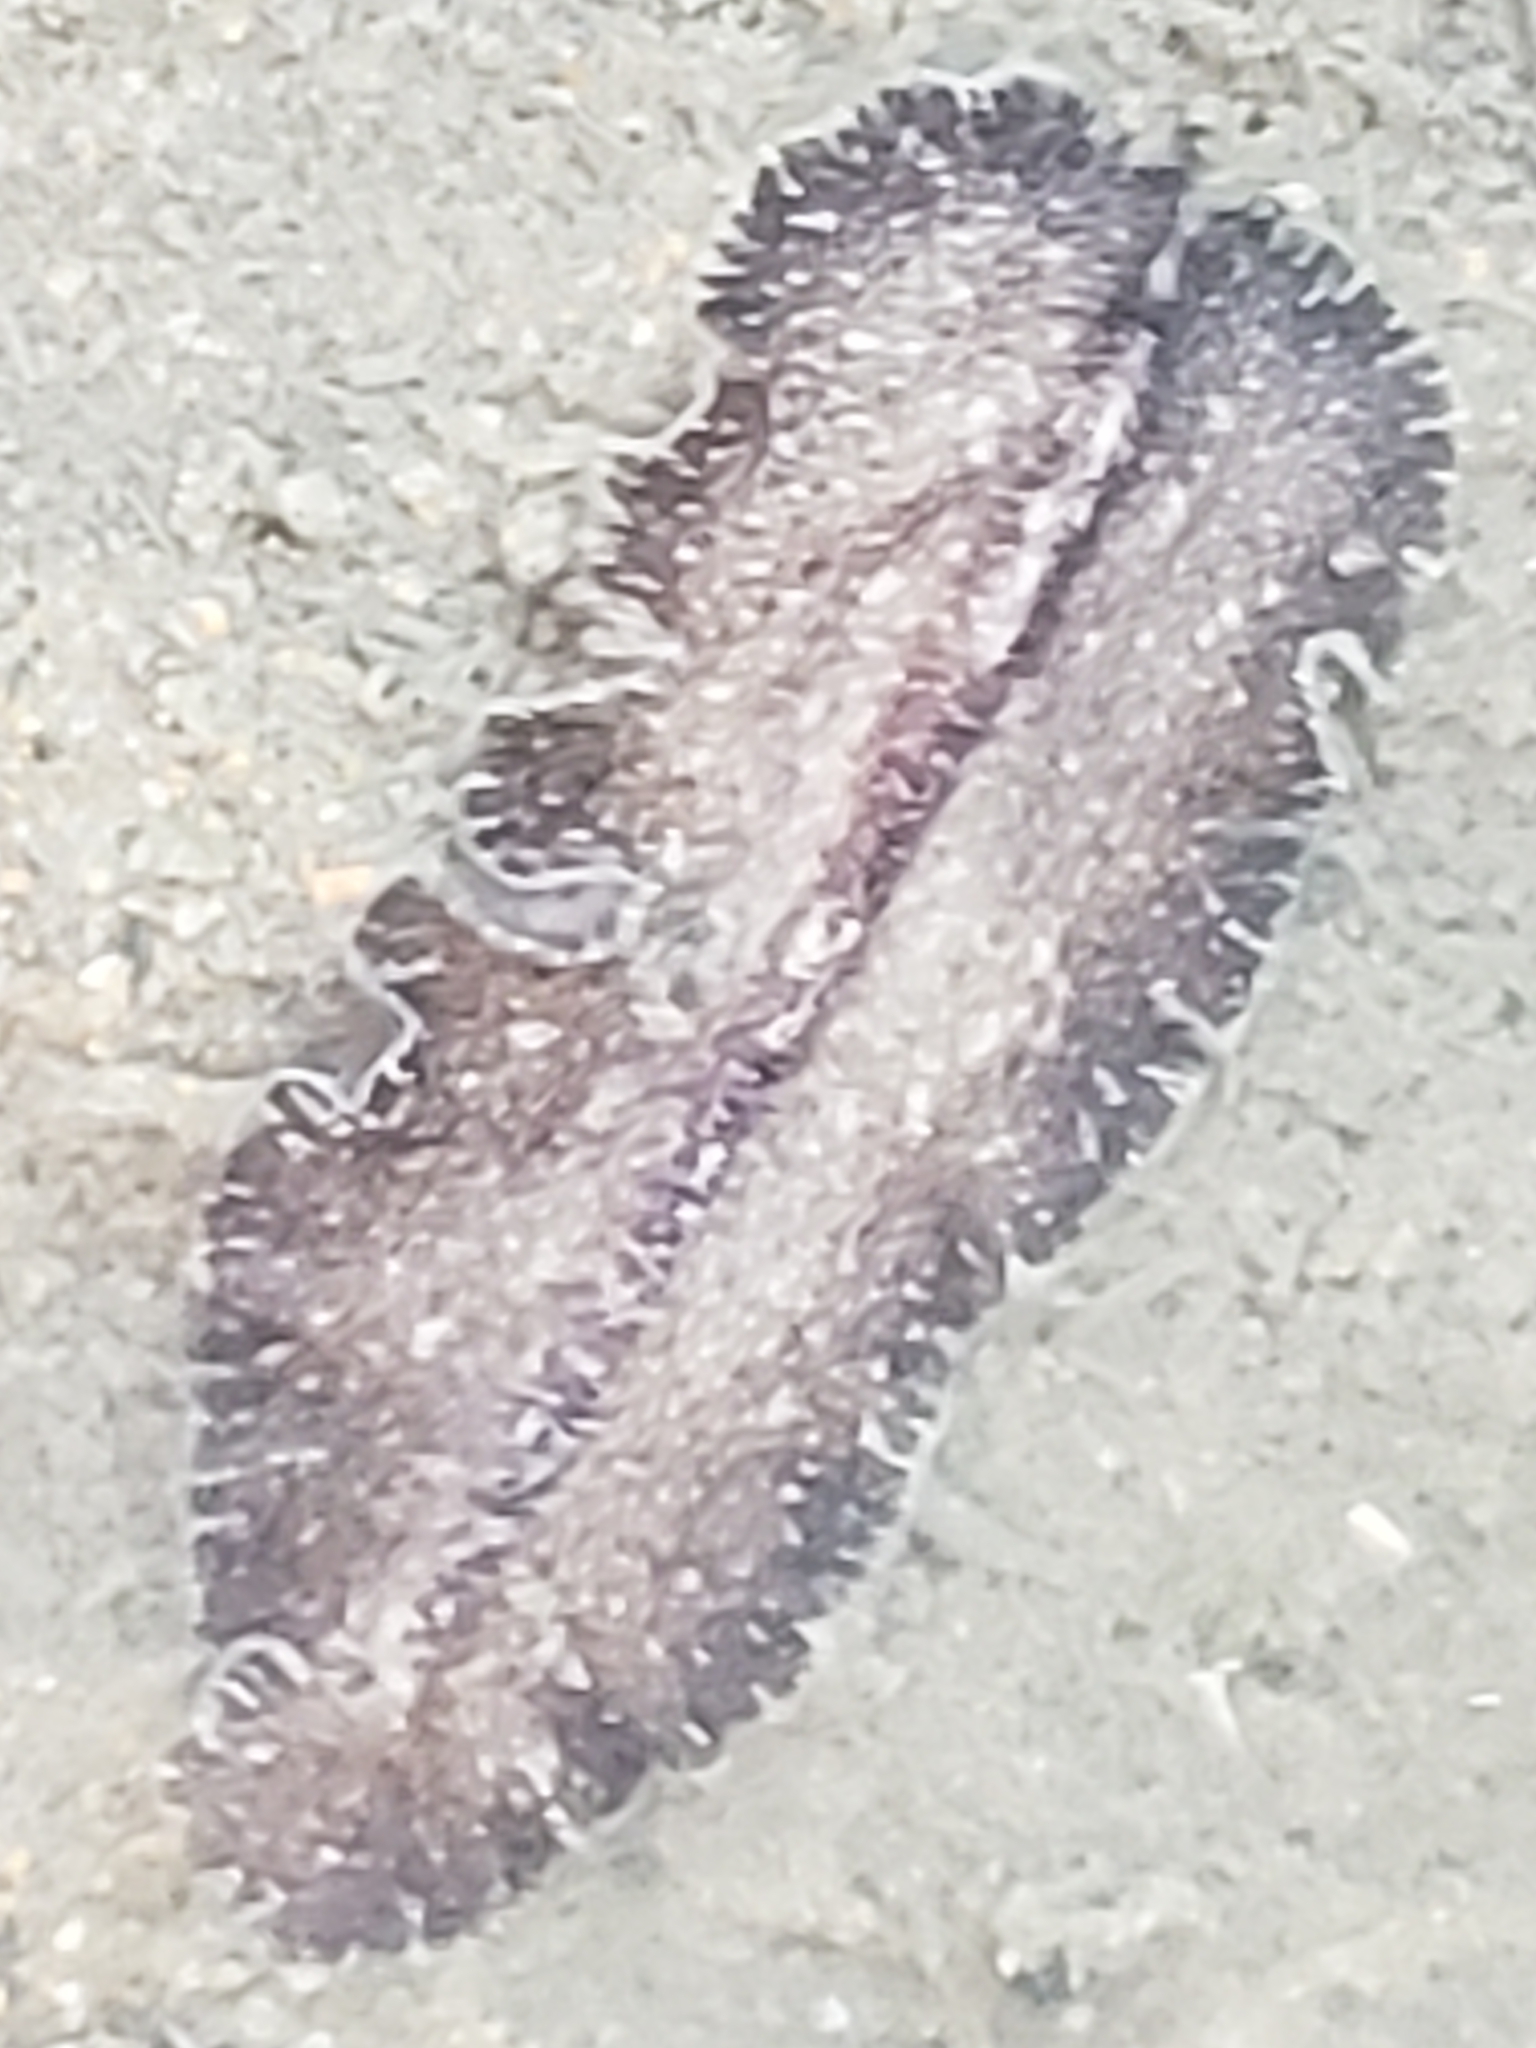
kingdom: Animalia
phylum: Platyhelminthes
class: Turbellaria
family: Pseudocerotidae
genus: Pseudoceros
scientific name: Pseudoceros mexicanus
